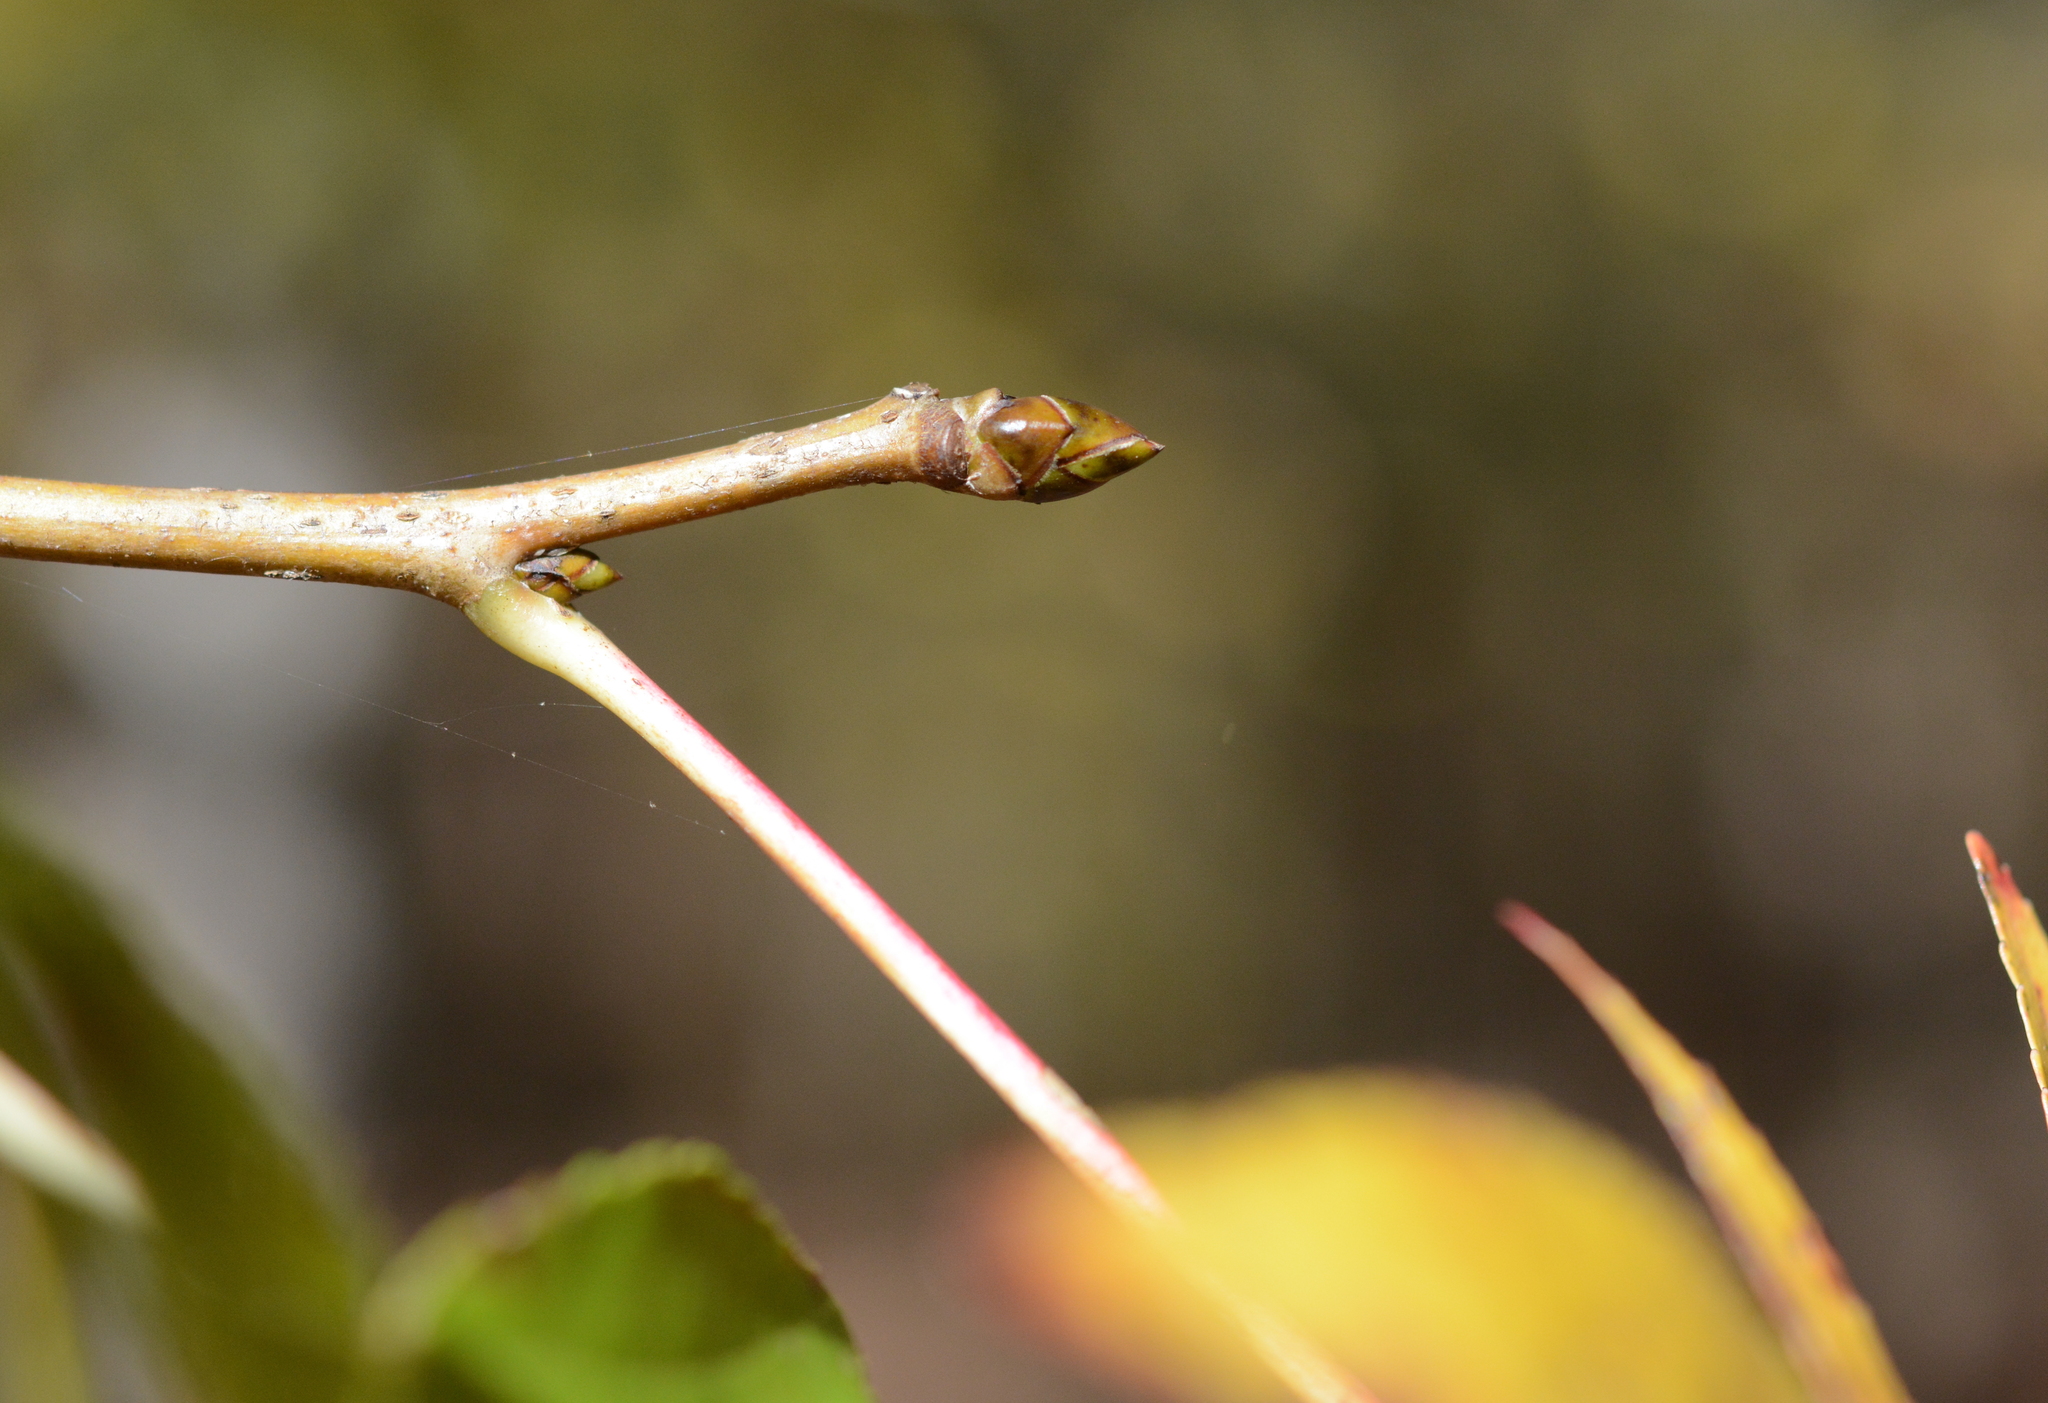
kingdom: Plantae
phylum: Tracheophyta
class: Magnoliopsida
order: Saxifragales
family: Altingiaceae
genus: Liquidambar
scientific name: Liquidambar styraciflua
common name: Sweet gum
